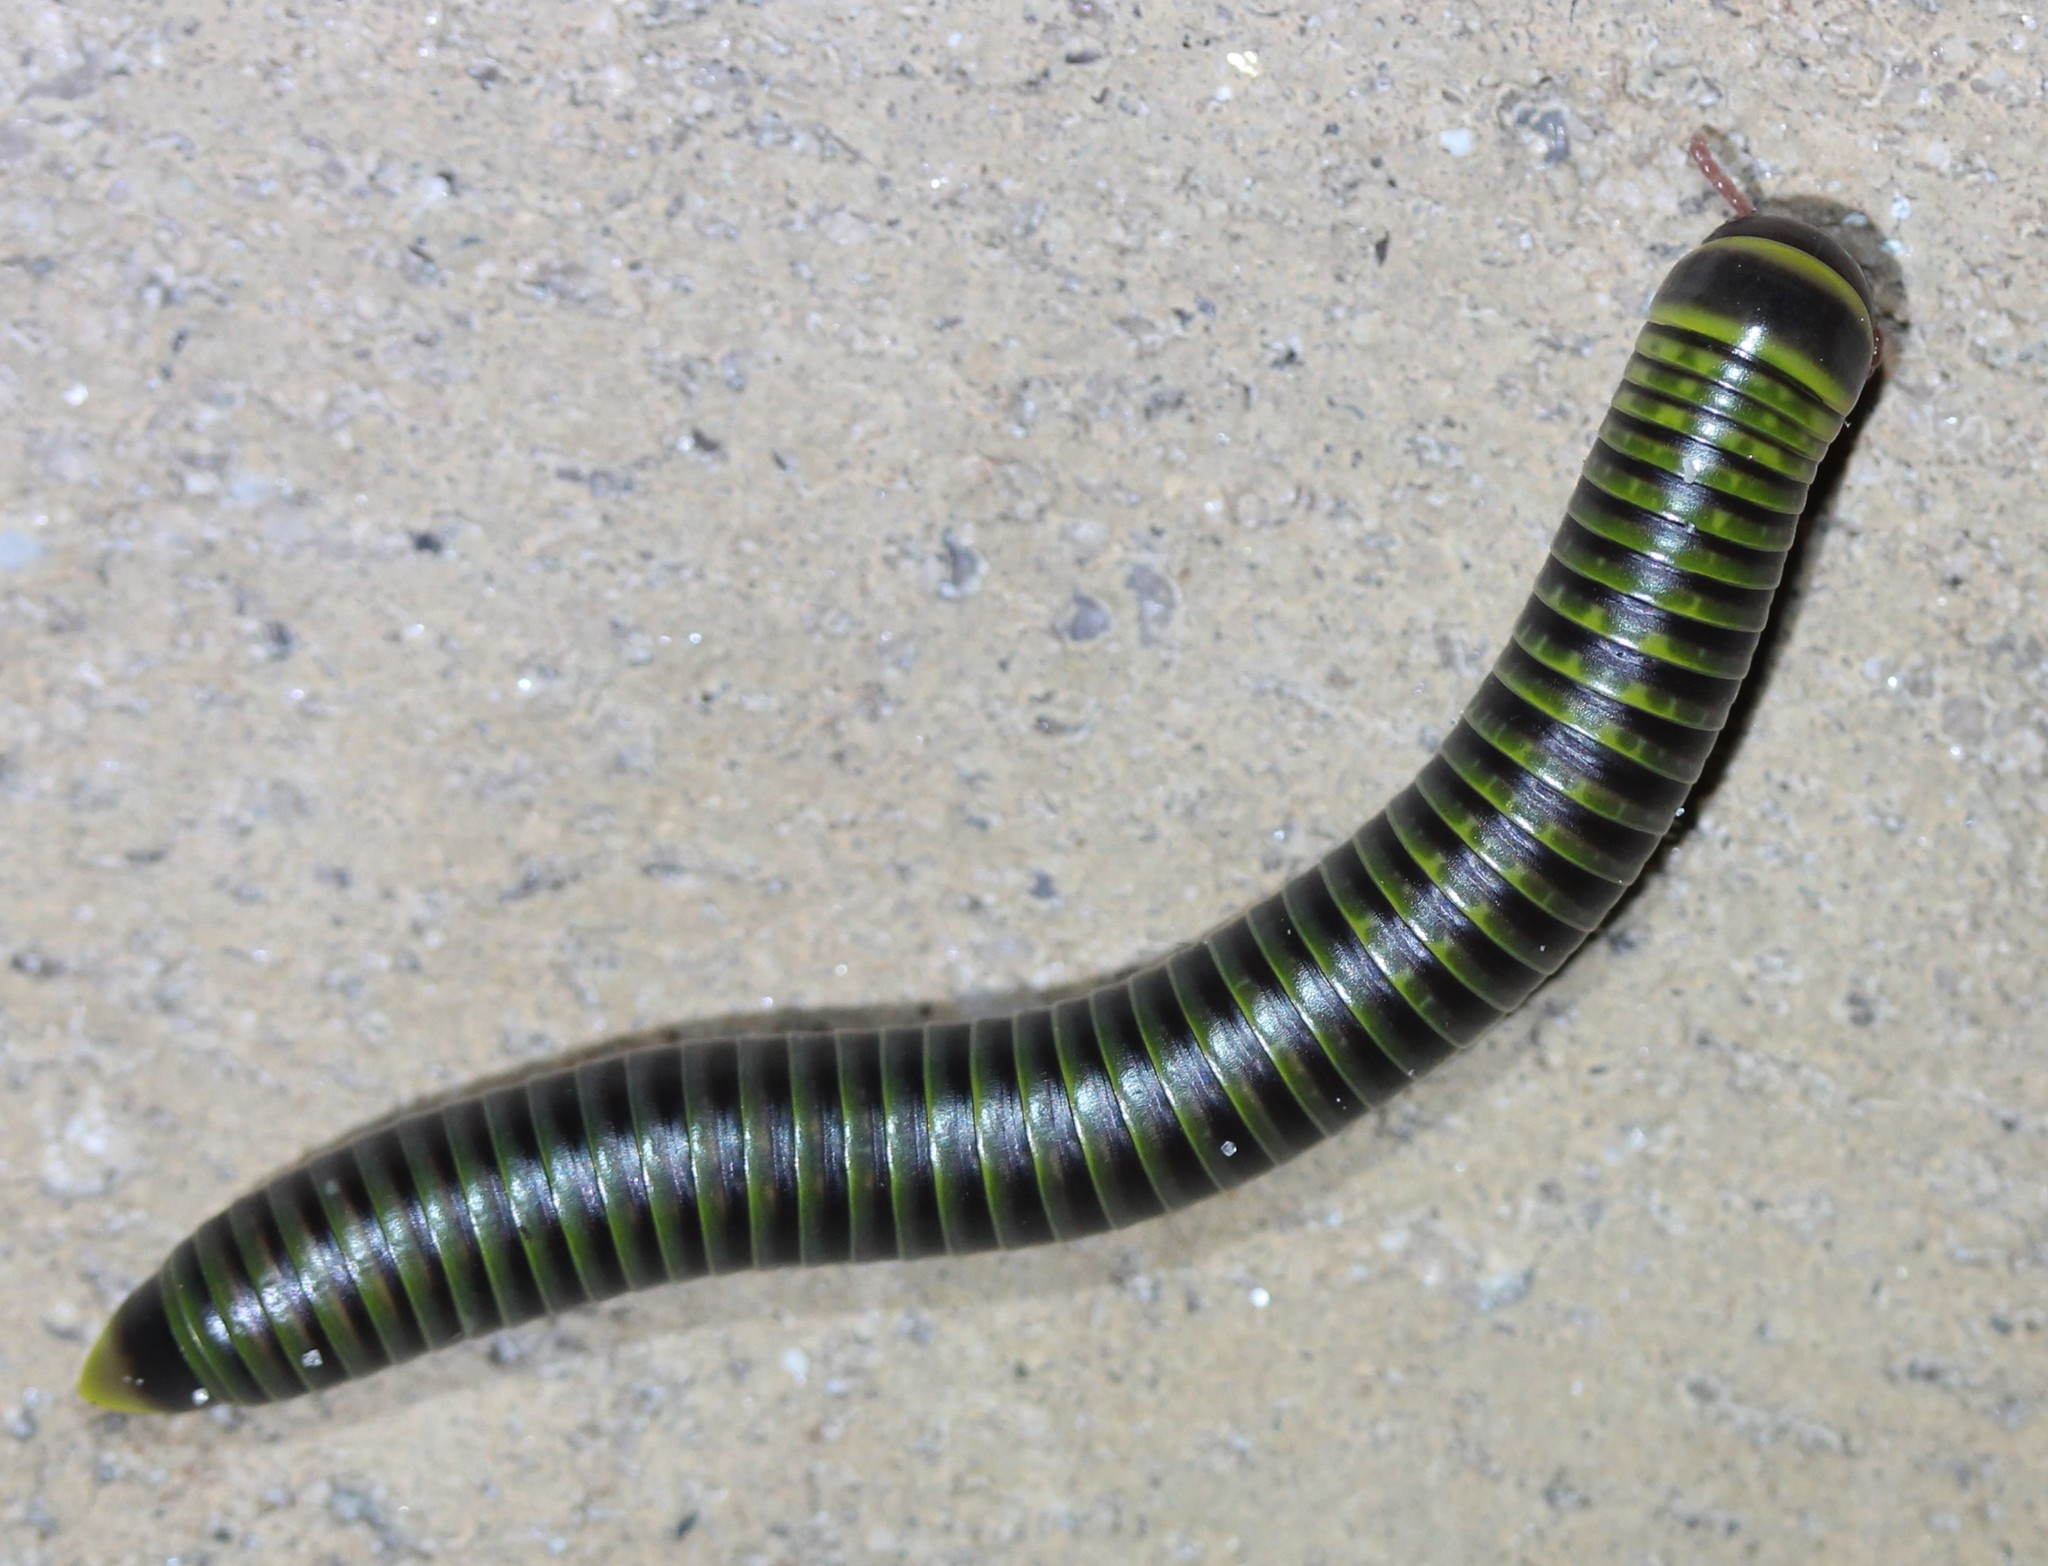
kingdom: Animalia
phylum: Arthropoda
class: Diplopoda
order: Spirobolida
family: Rhinocricidae
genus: Anadenobolus
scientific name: Anadenobolus monilicornis
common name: Caribbean millipede
